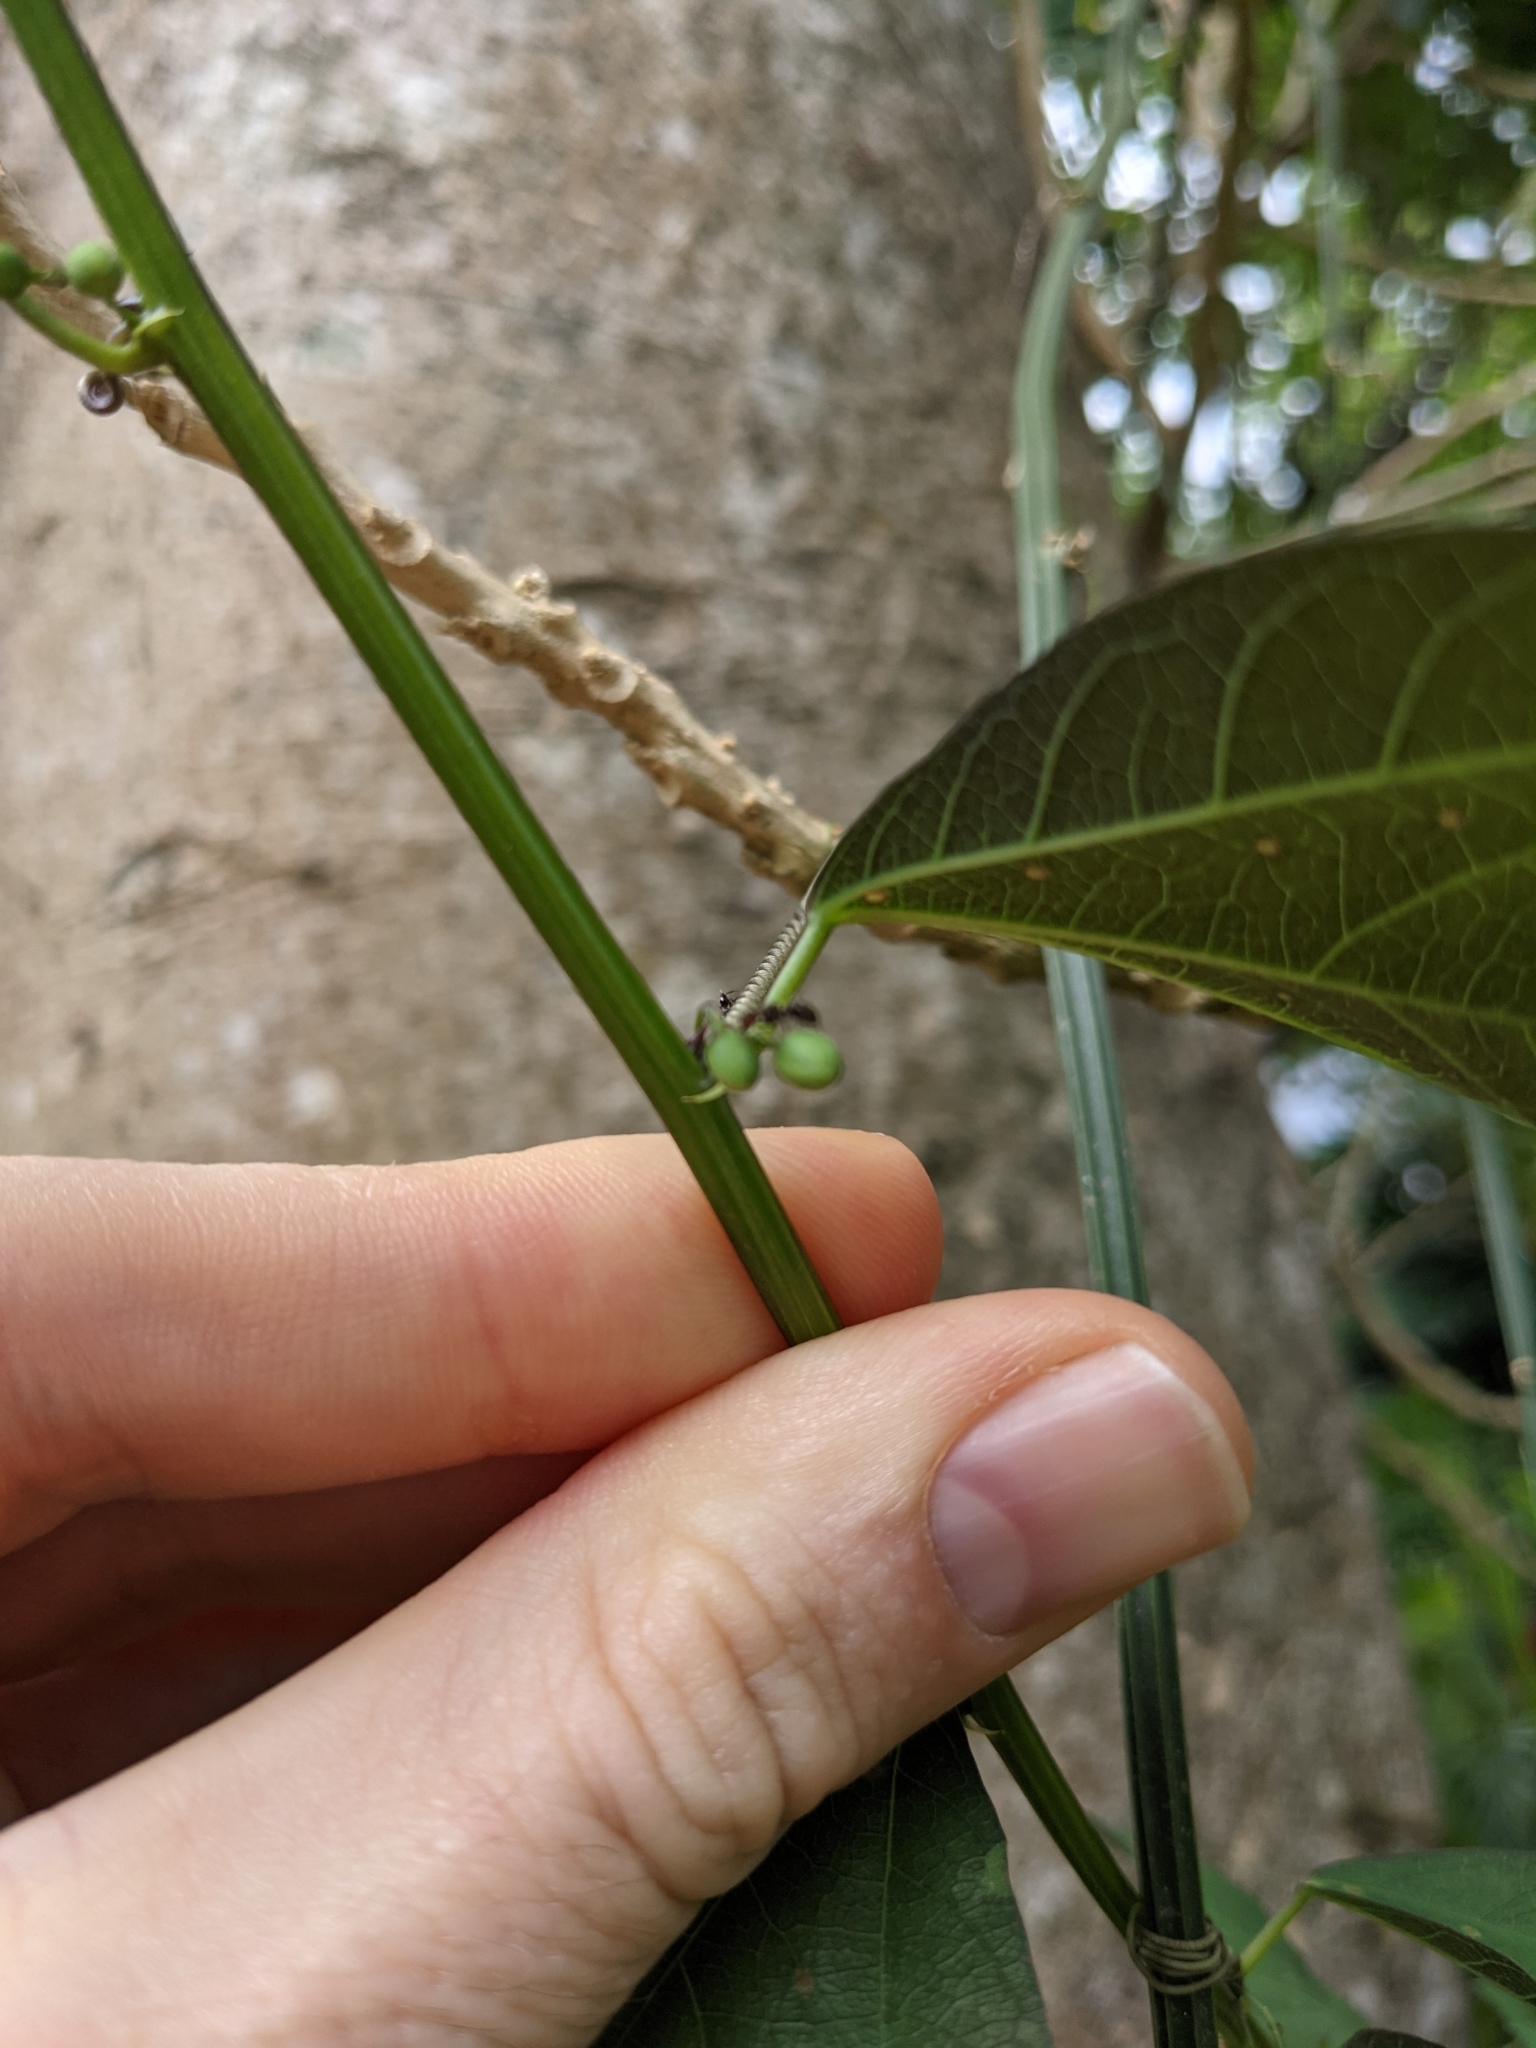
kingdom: Plantae
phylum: Tracheophyta
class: Magnoliopsida
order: Malpighiales
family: Passifloraceae
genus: Passiflora
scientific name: Passiflora biflora
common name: Twoflower passionflower
